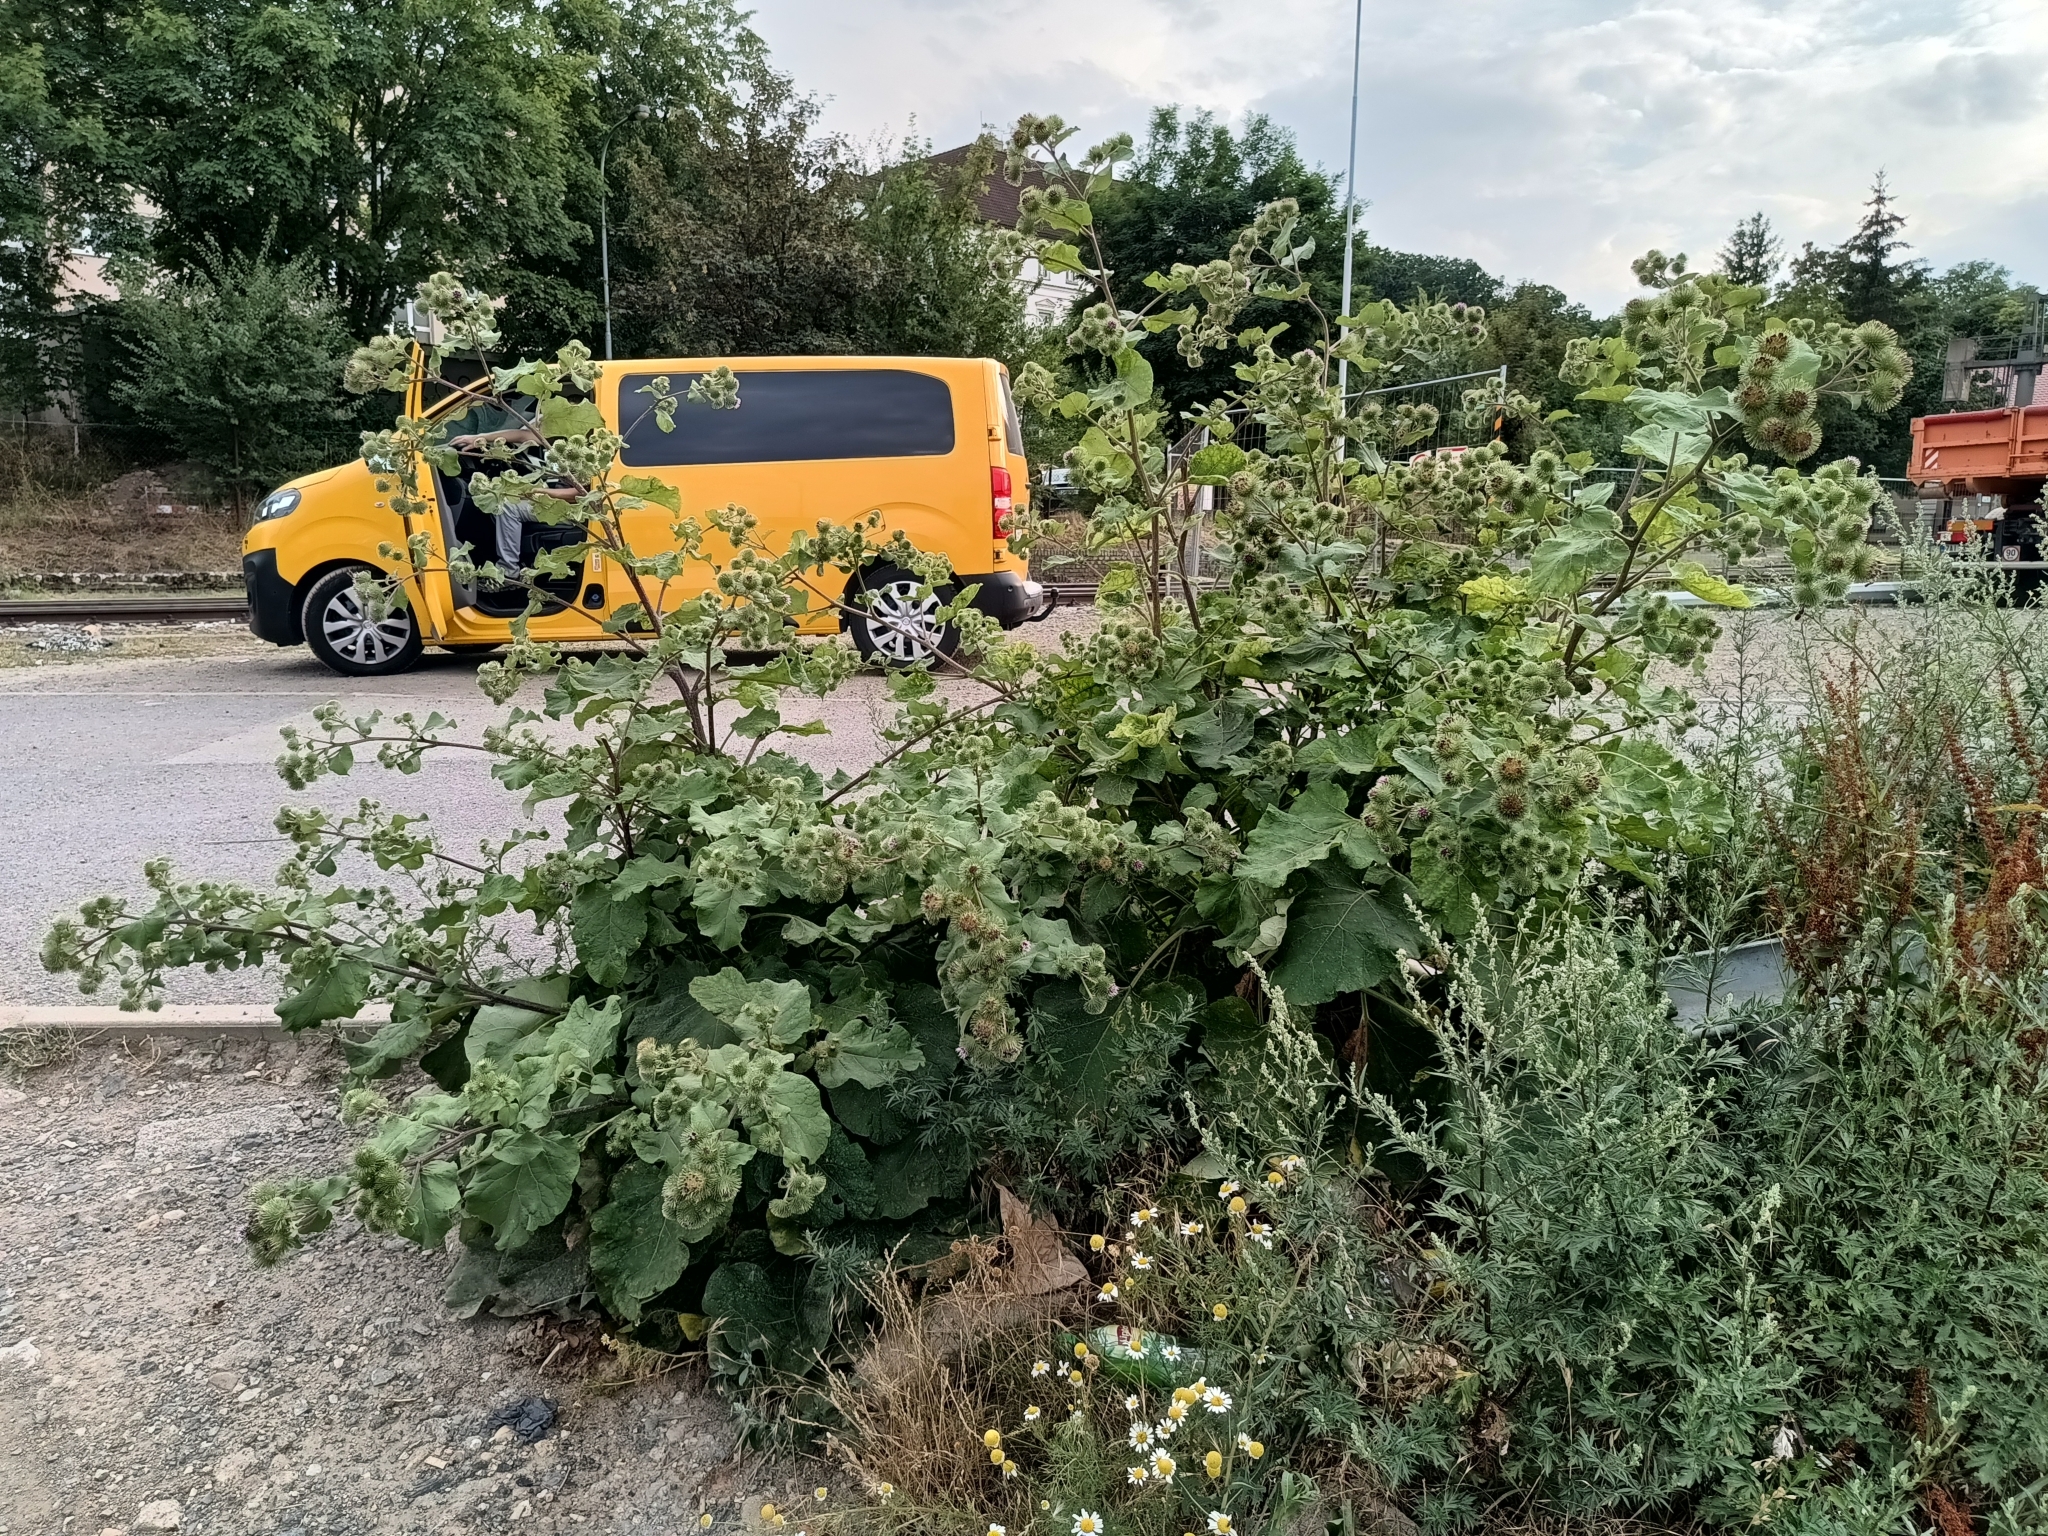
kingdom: Plantae
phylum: Tracheophyta
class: Magnoliopsida
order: Asterales
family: Asteraceae
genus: Arctium
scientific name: Arctium lappa
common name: Greater burdock
